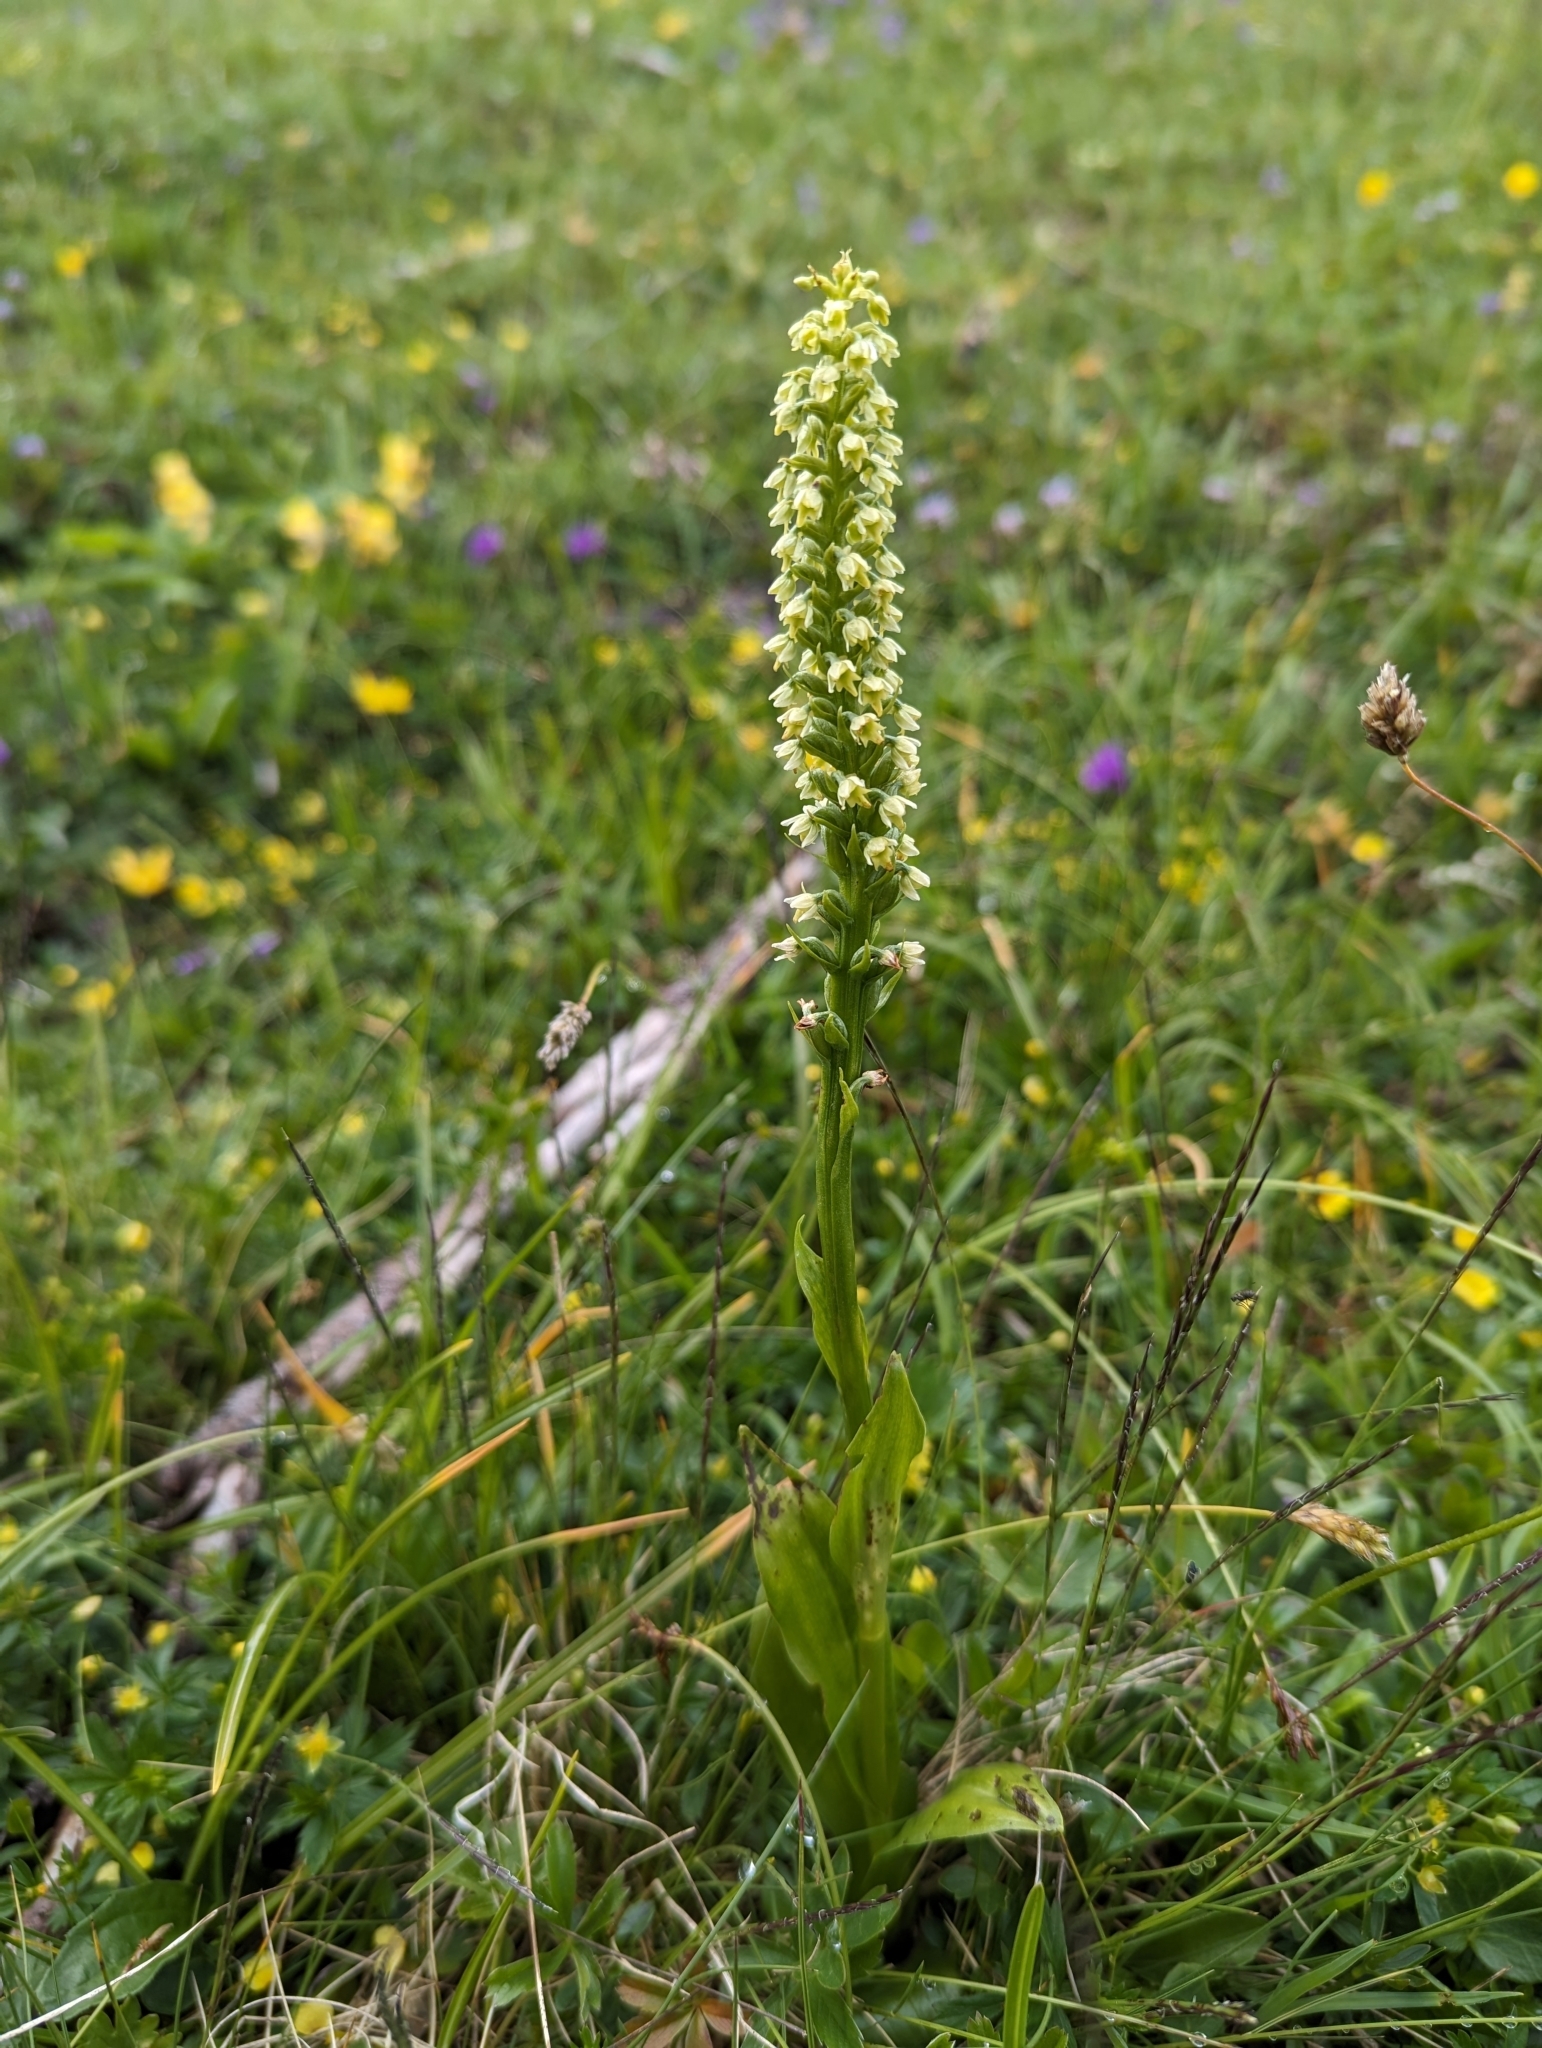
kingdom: Plantae
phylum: Tracheophyta
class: Liliopsida
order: Asparagales
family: Orchidaceae
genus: Pseudorchis
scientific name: Pseudorchis albida
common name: Small-white orchid
